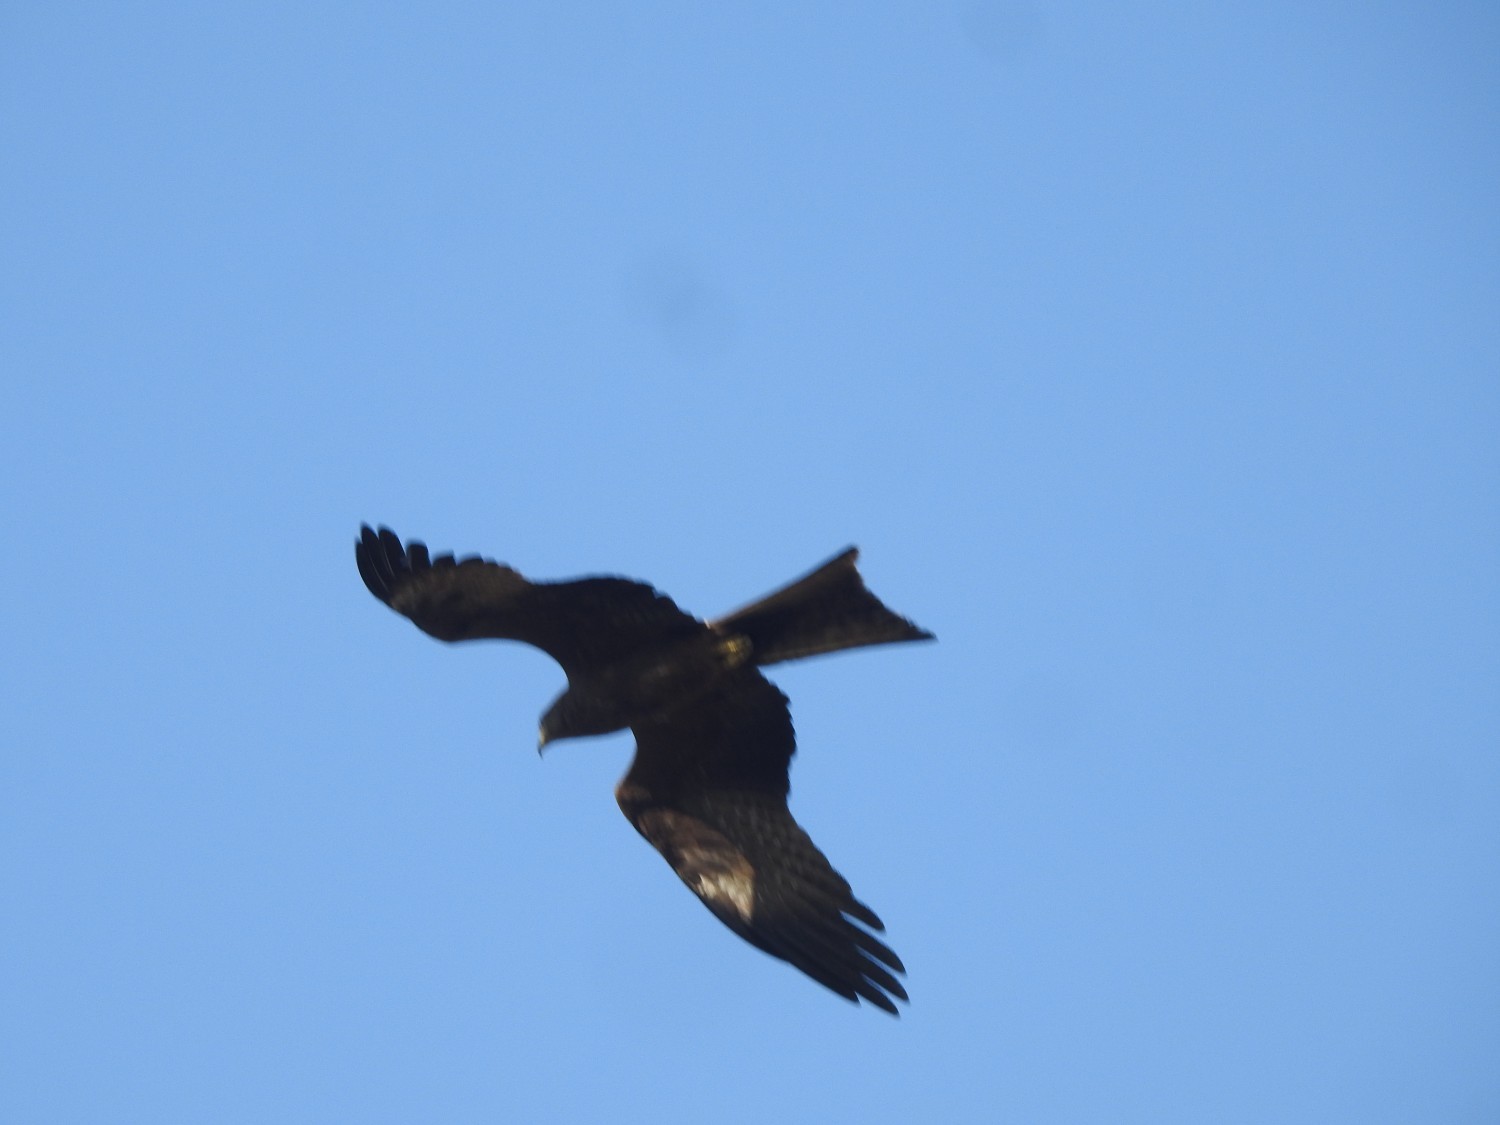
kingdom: Animalia
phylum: Chordata
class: Aves
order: Accipitriformes
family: Accipitridae
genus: Milvus
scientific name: Milvus migrans
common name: Black kite
